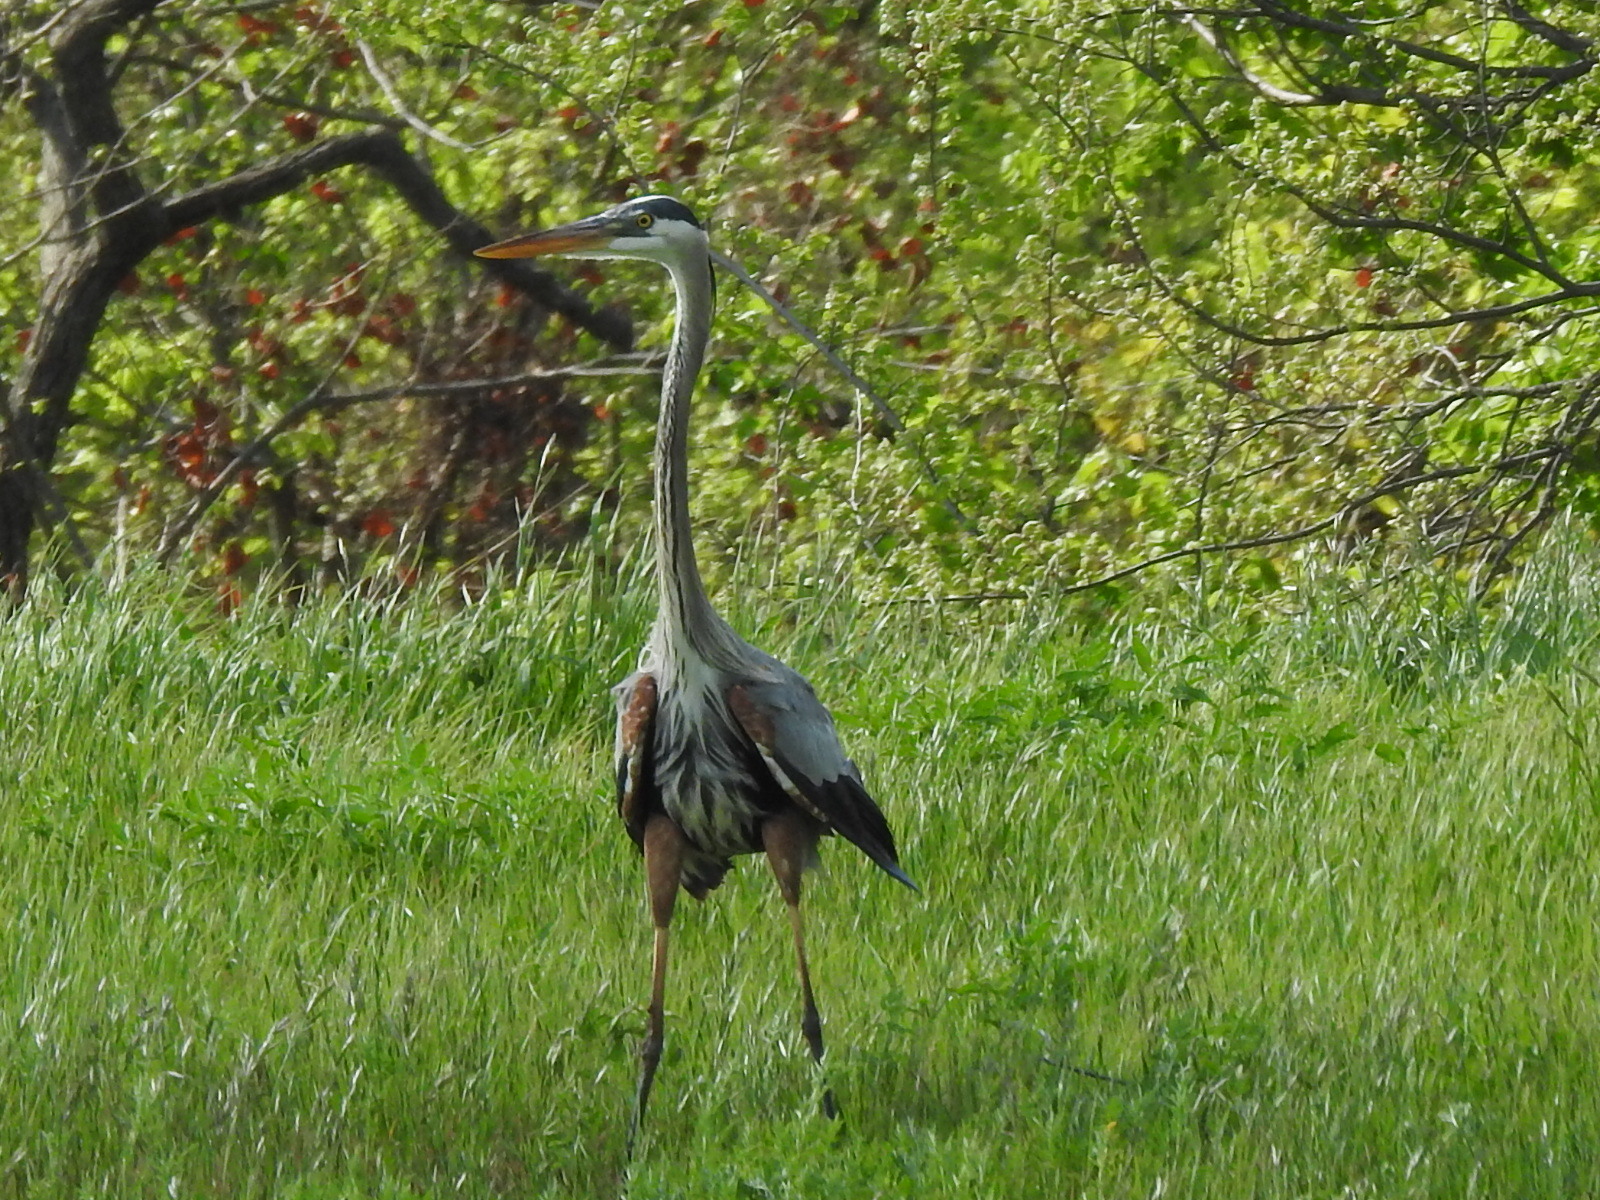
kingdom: Animalia
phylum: Chordata
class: Aves
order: Pelecaniformes
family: Ardeidae
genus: Ardea
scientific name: Ardea herodias
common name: Great blue heron
